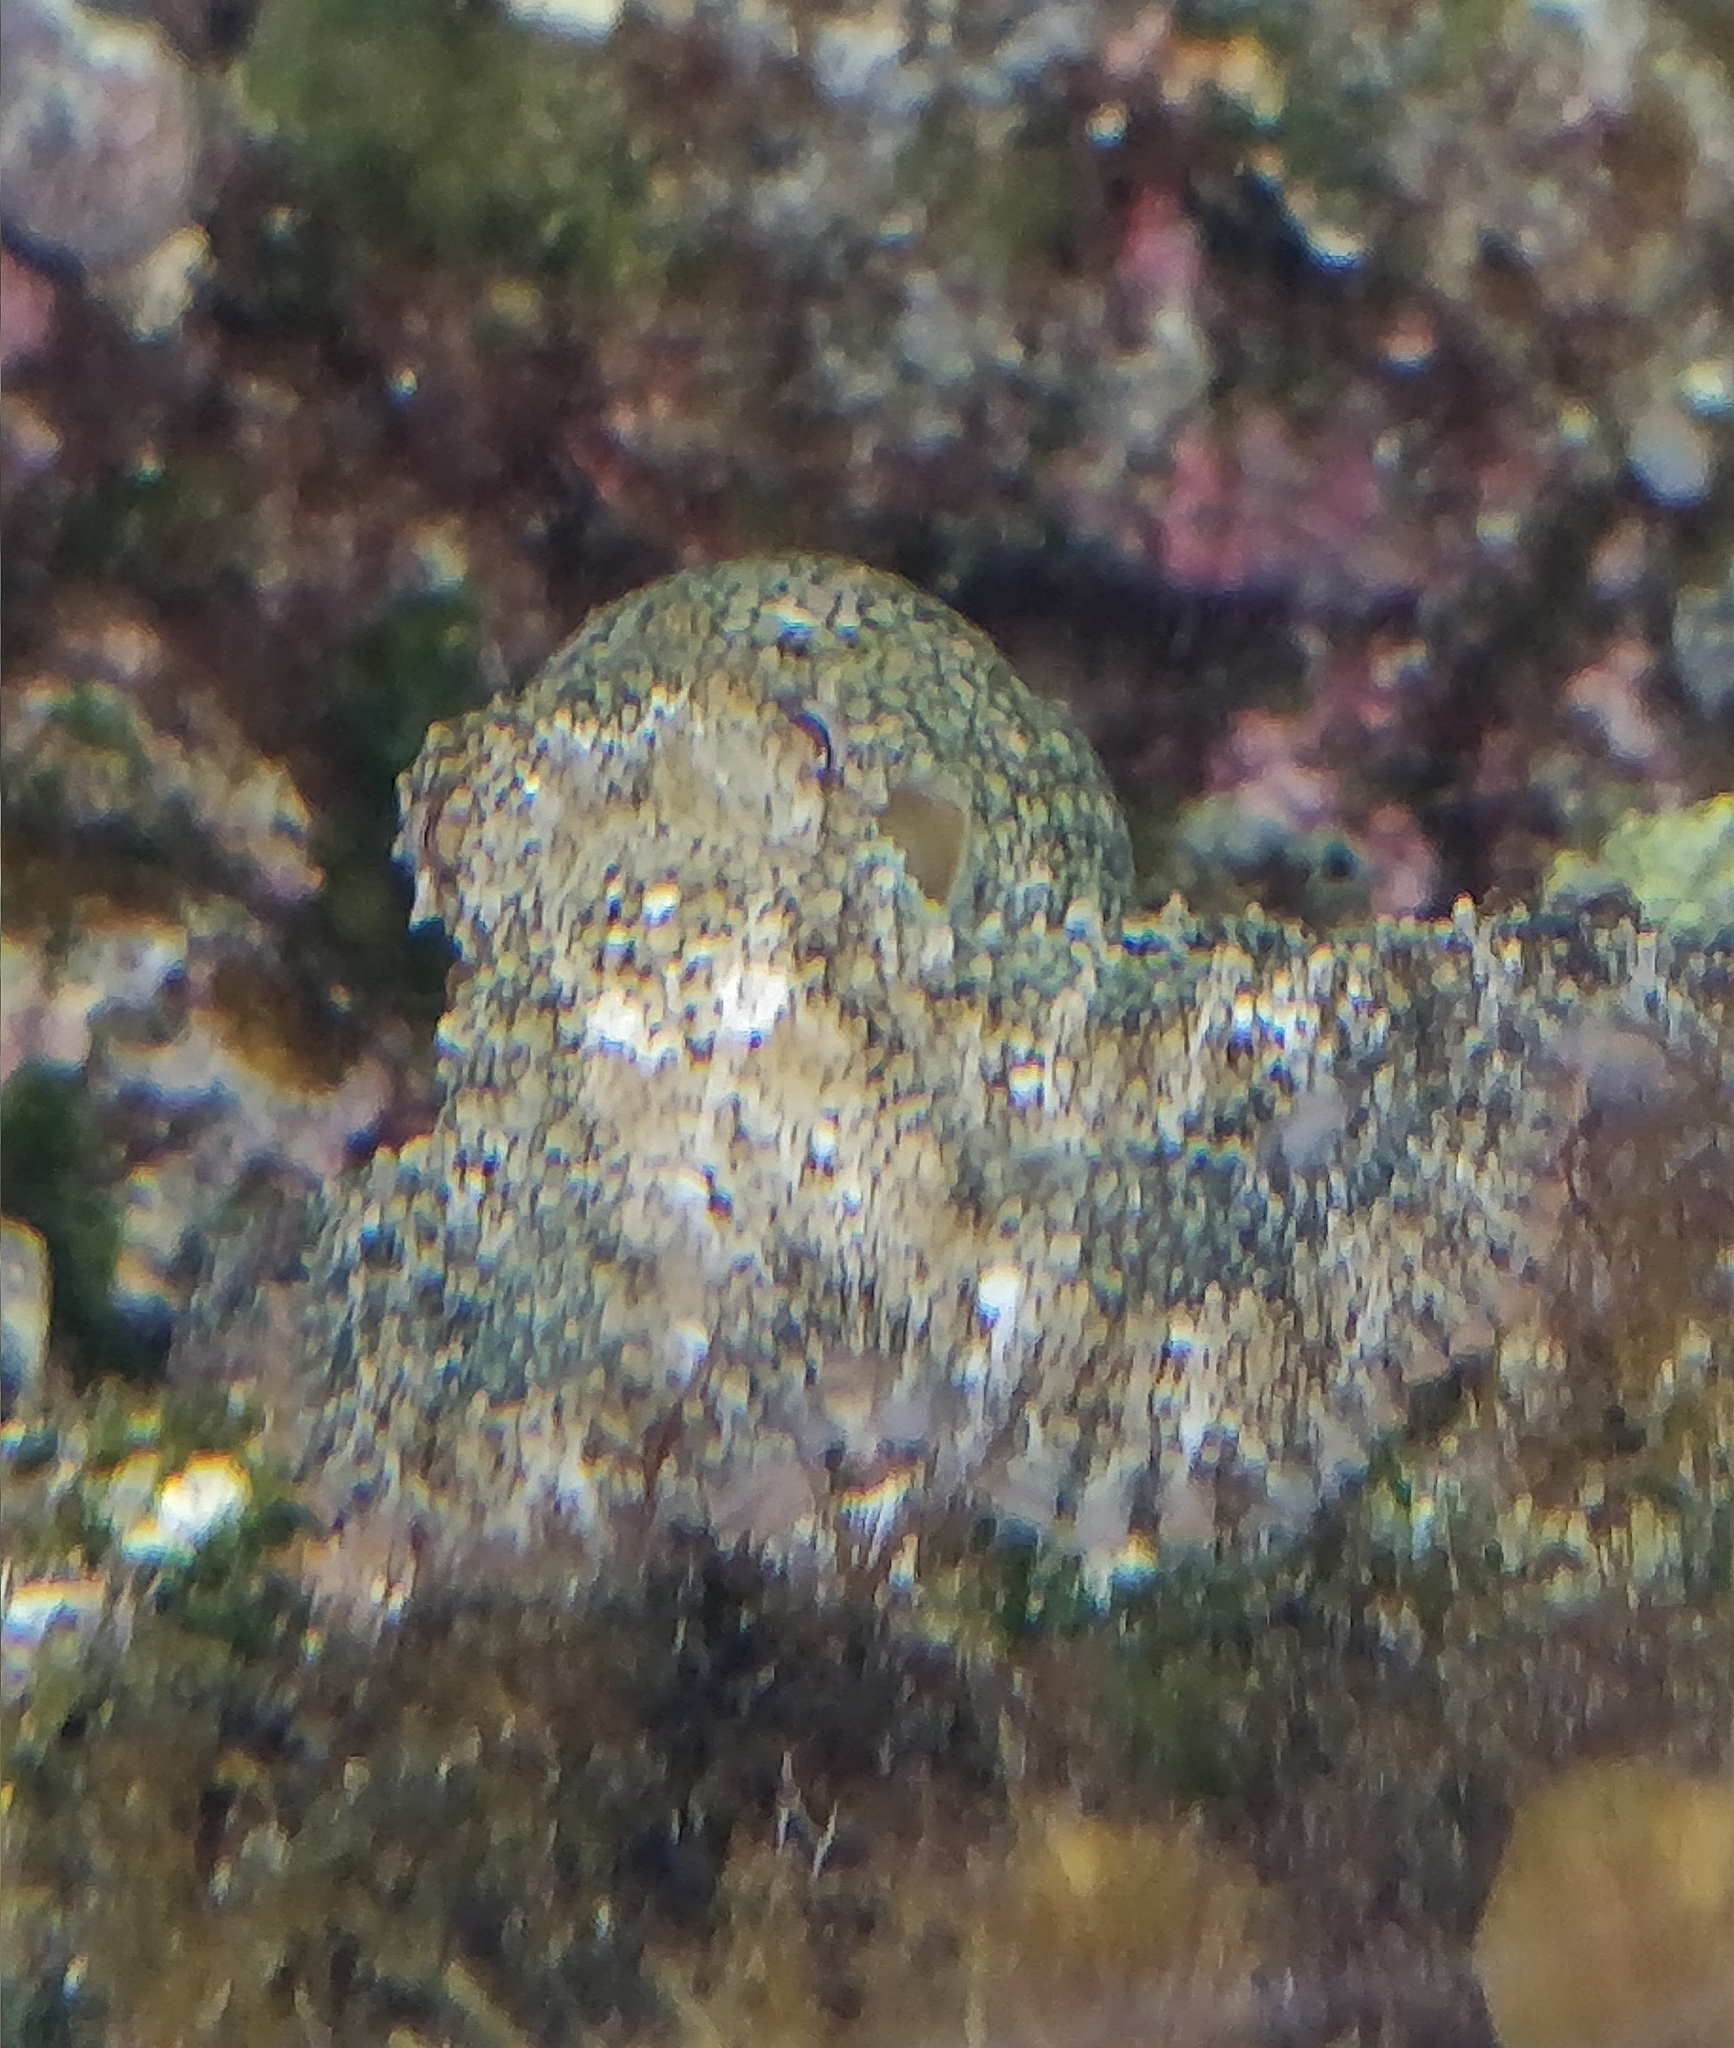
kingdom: Animalia
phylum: Mollusca
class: Cephalopoda
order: Octopoda
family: Octopodidae
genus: Octopus
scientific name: Octopus vulgaris
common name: Common octopus
